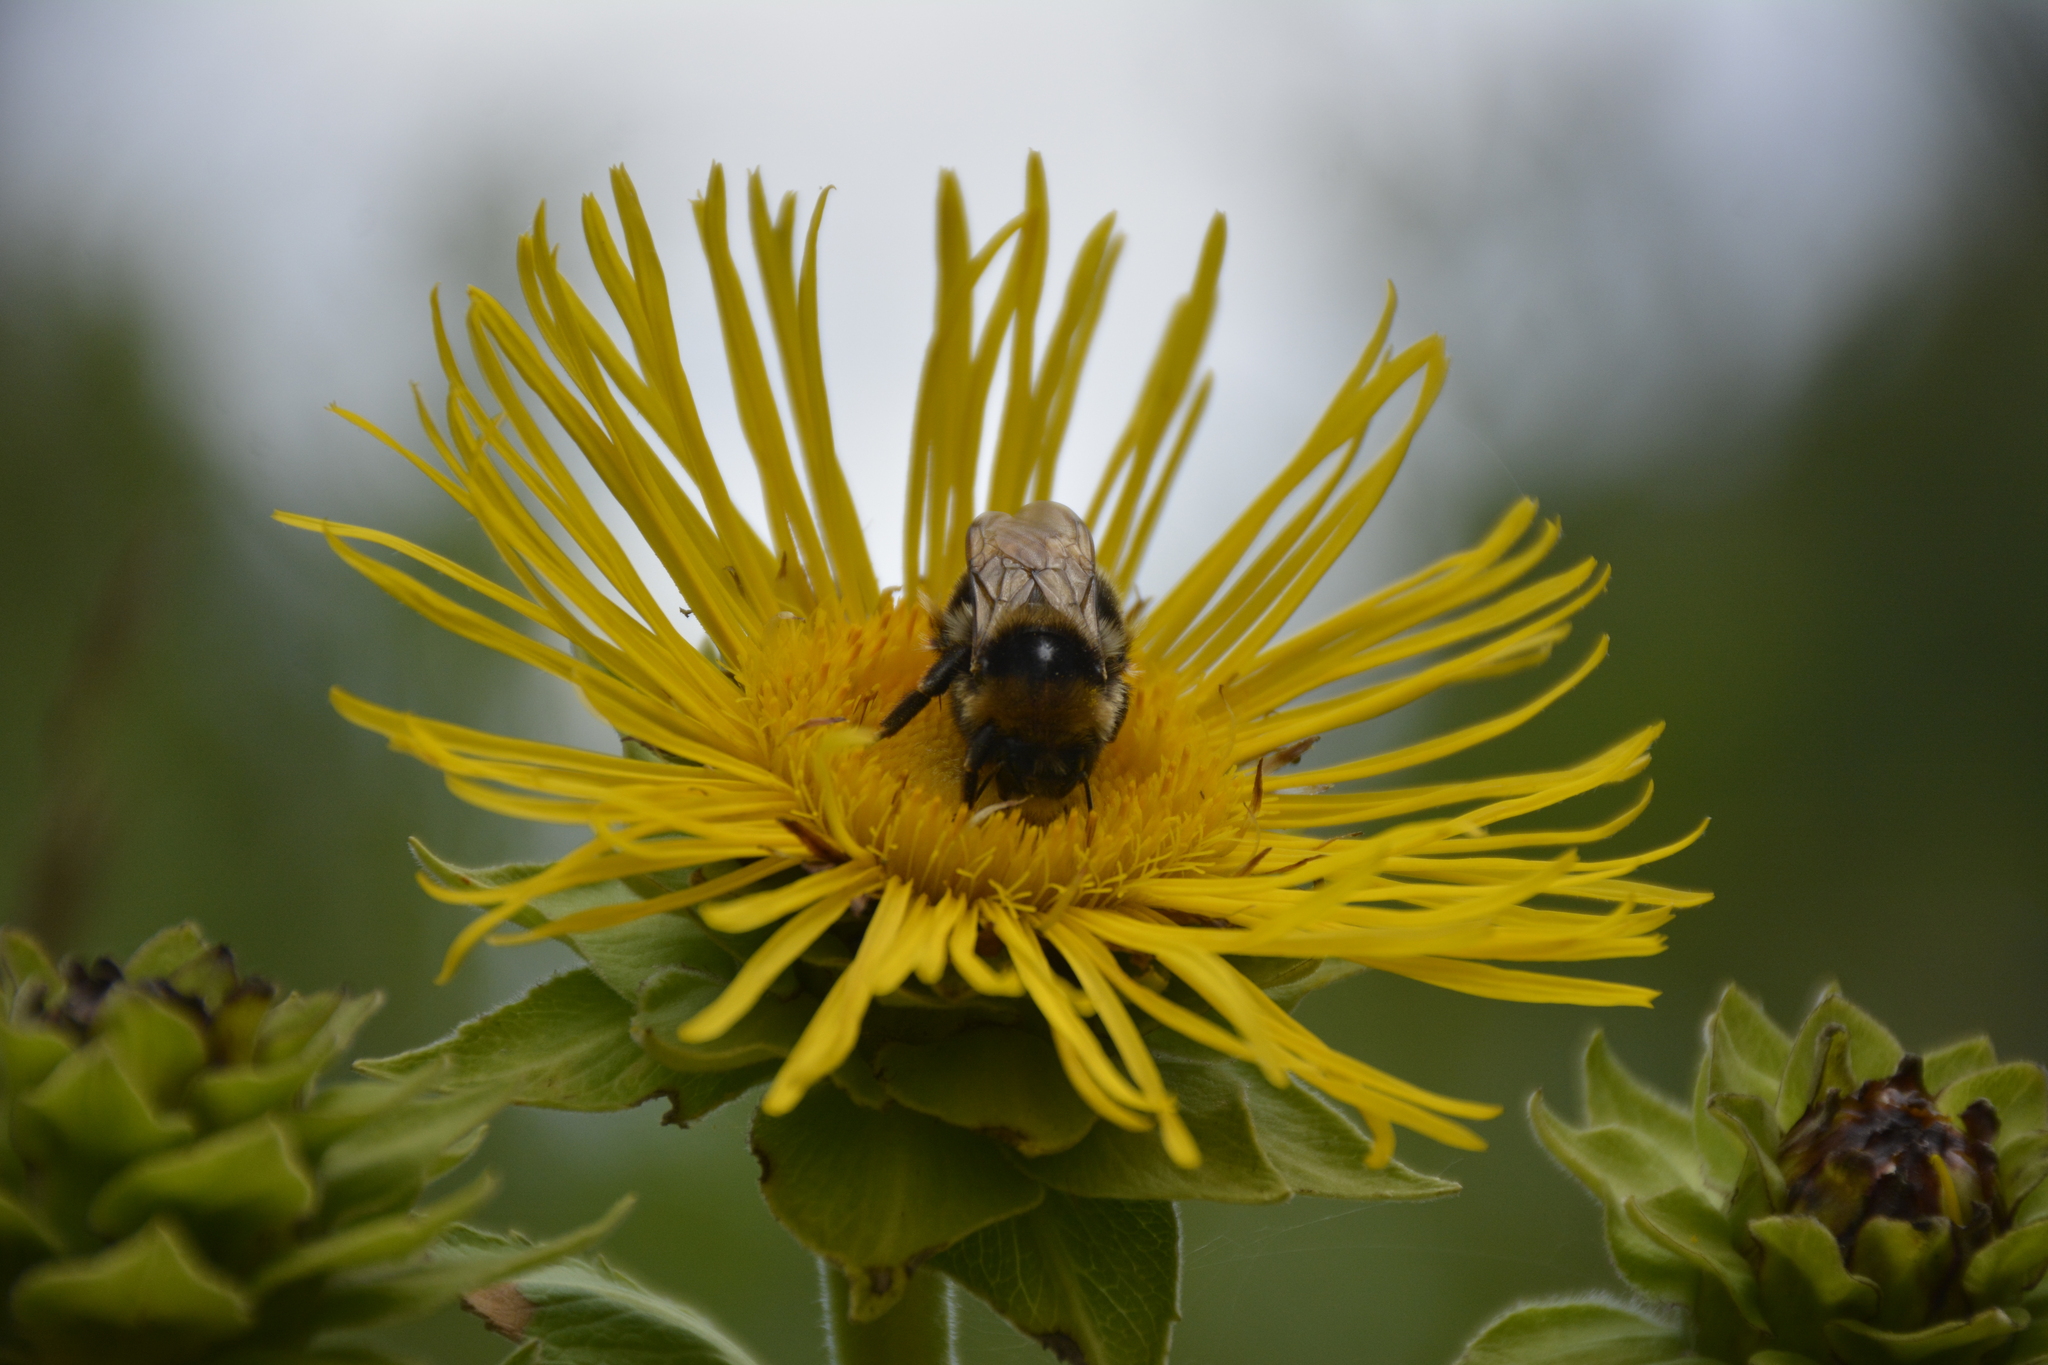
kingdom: Plantae
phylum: Tracheophyta
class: Magnoliopsida
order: Asterales
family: Asteraceae
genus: Inula
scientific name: Inula helenium
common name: Elecampane
